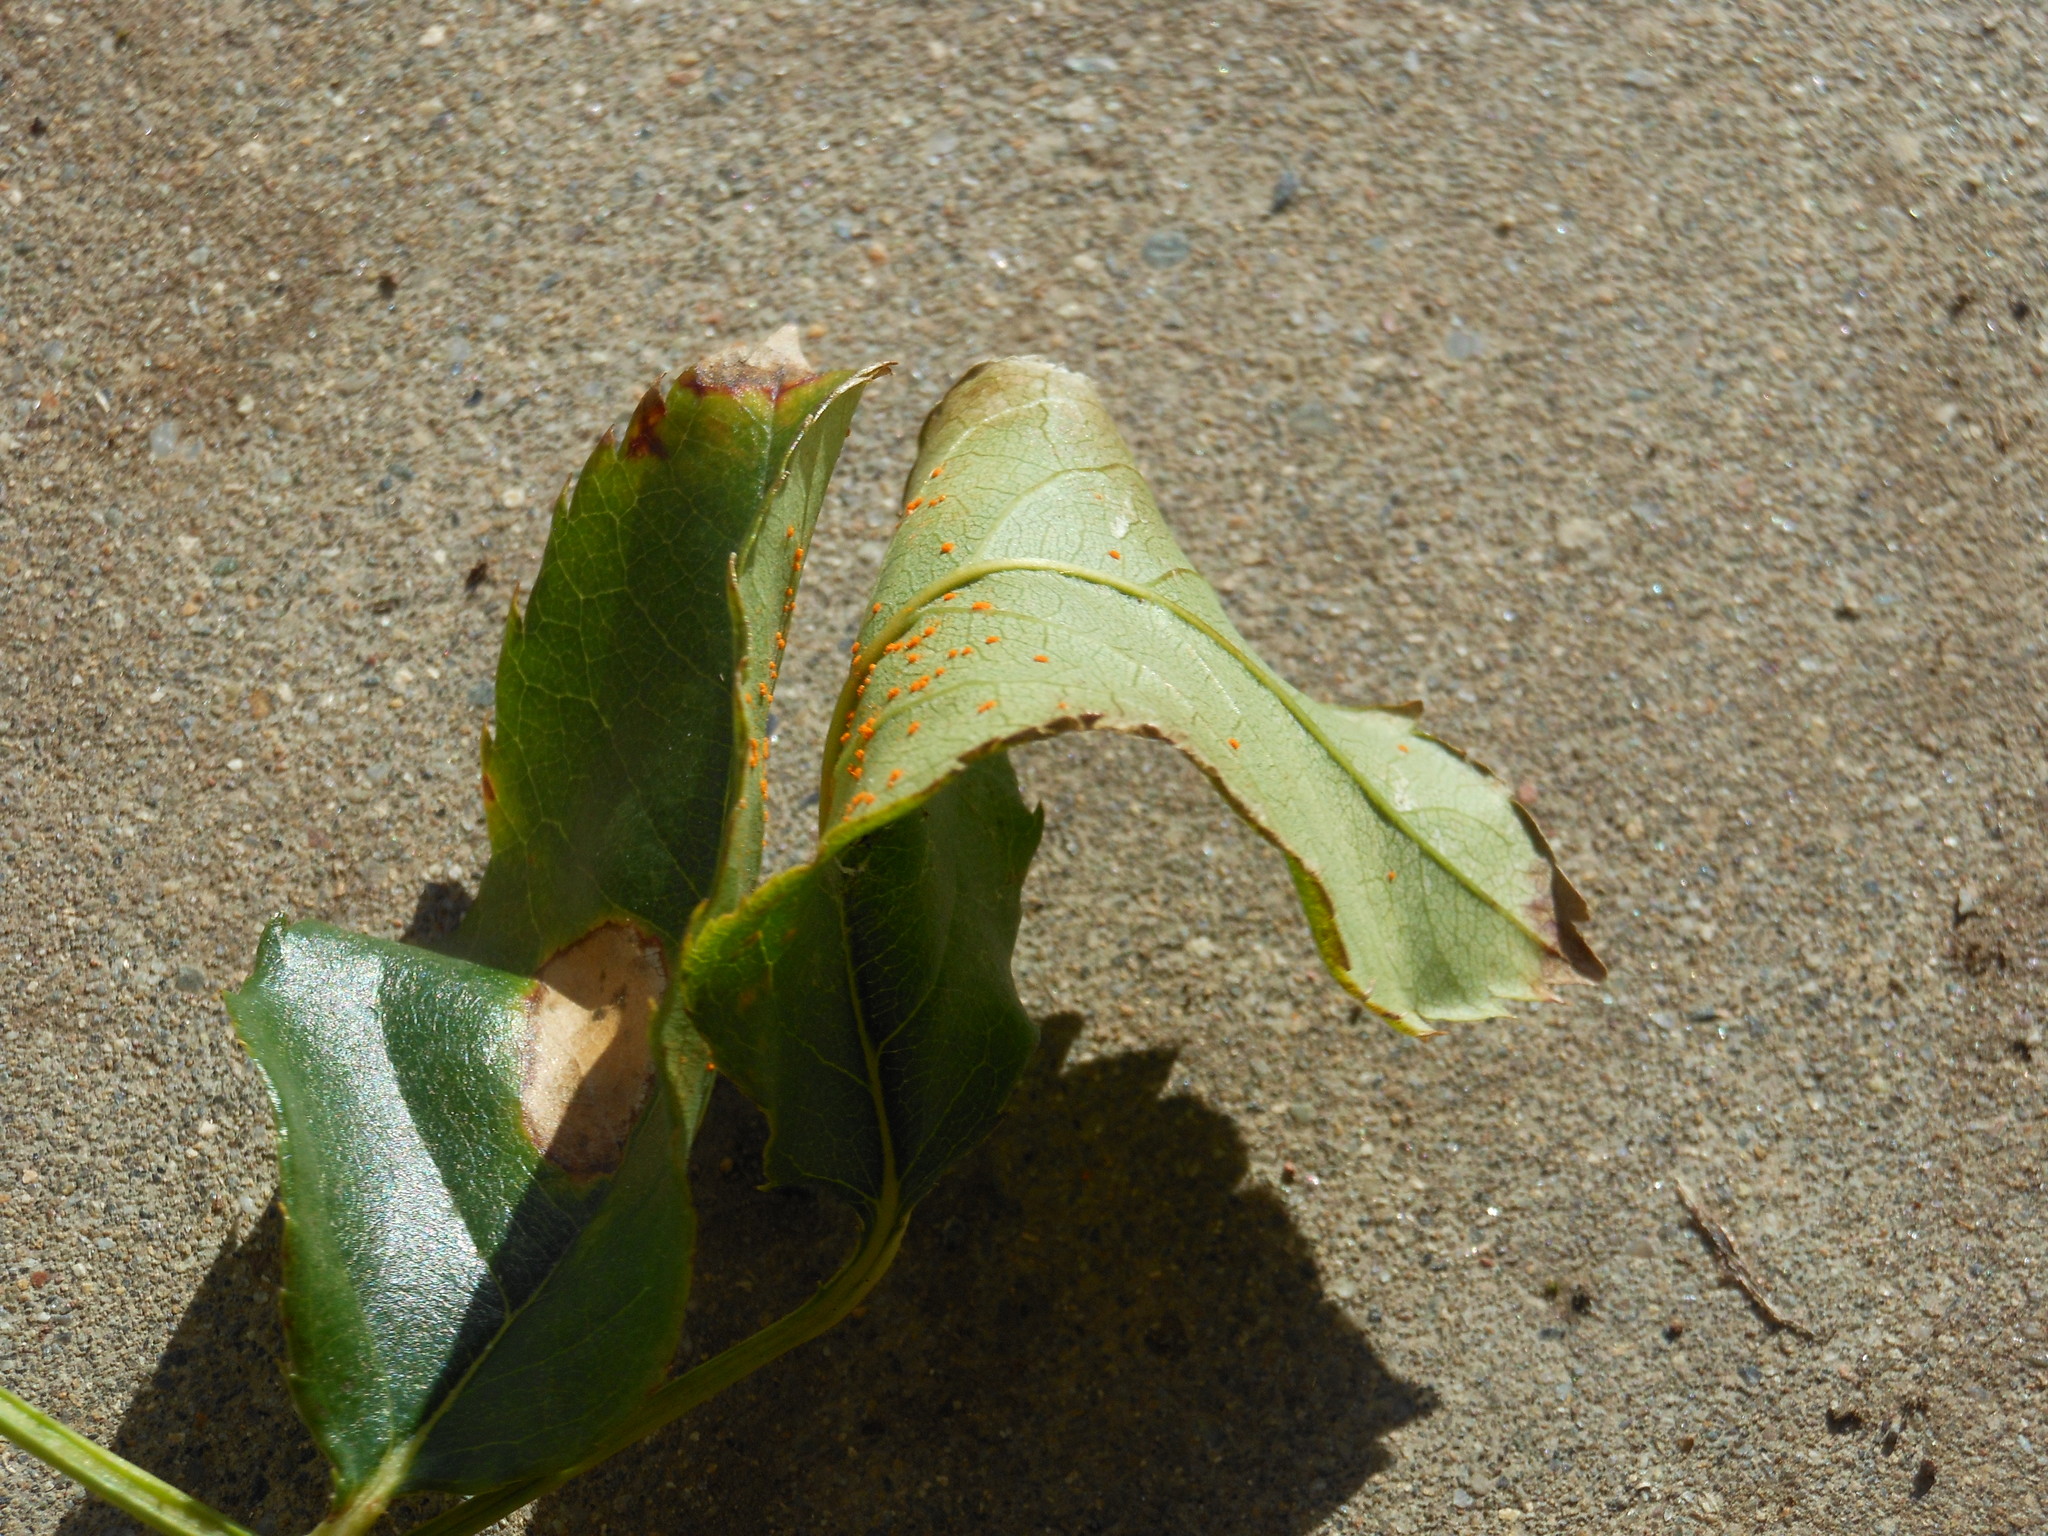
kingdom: Fungi
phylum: Basidiomycota
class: Pucciniomycetes
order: Pucciniales
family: Phragmidiaceae
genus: Phragmidium
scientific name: Phragmidium tuberculatum
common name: Rose rust
